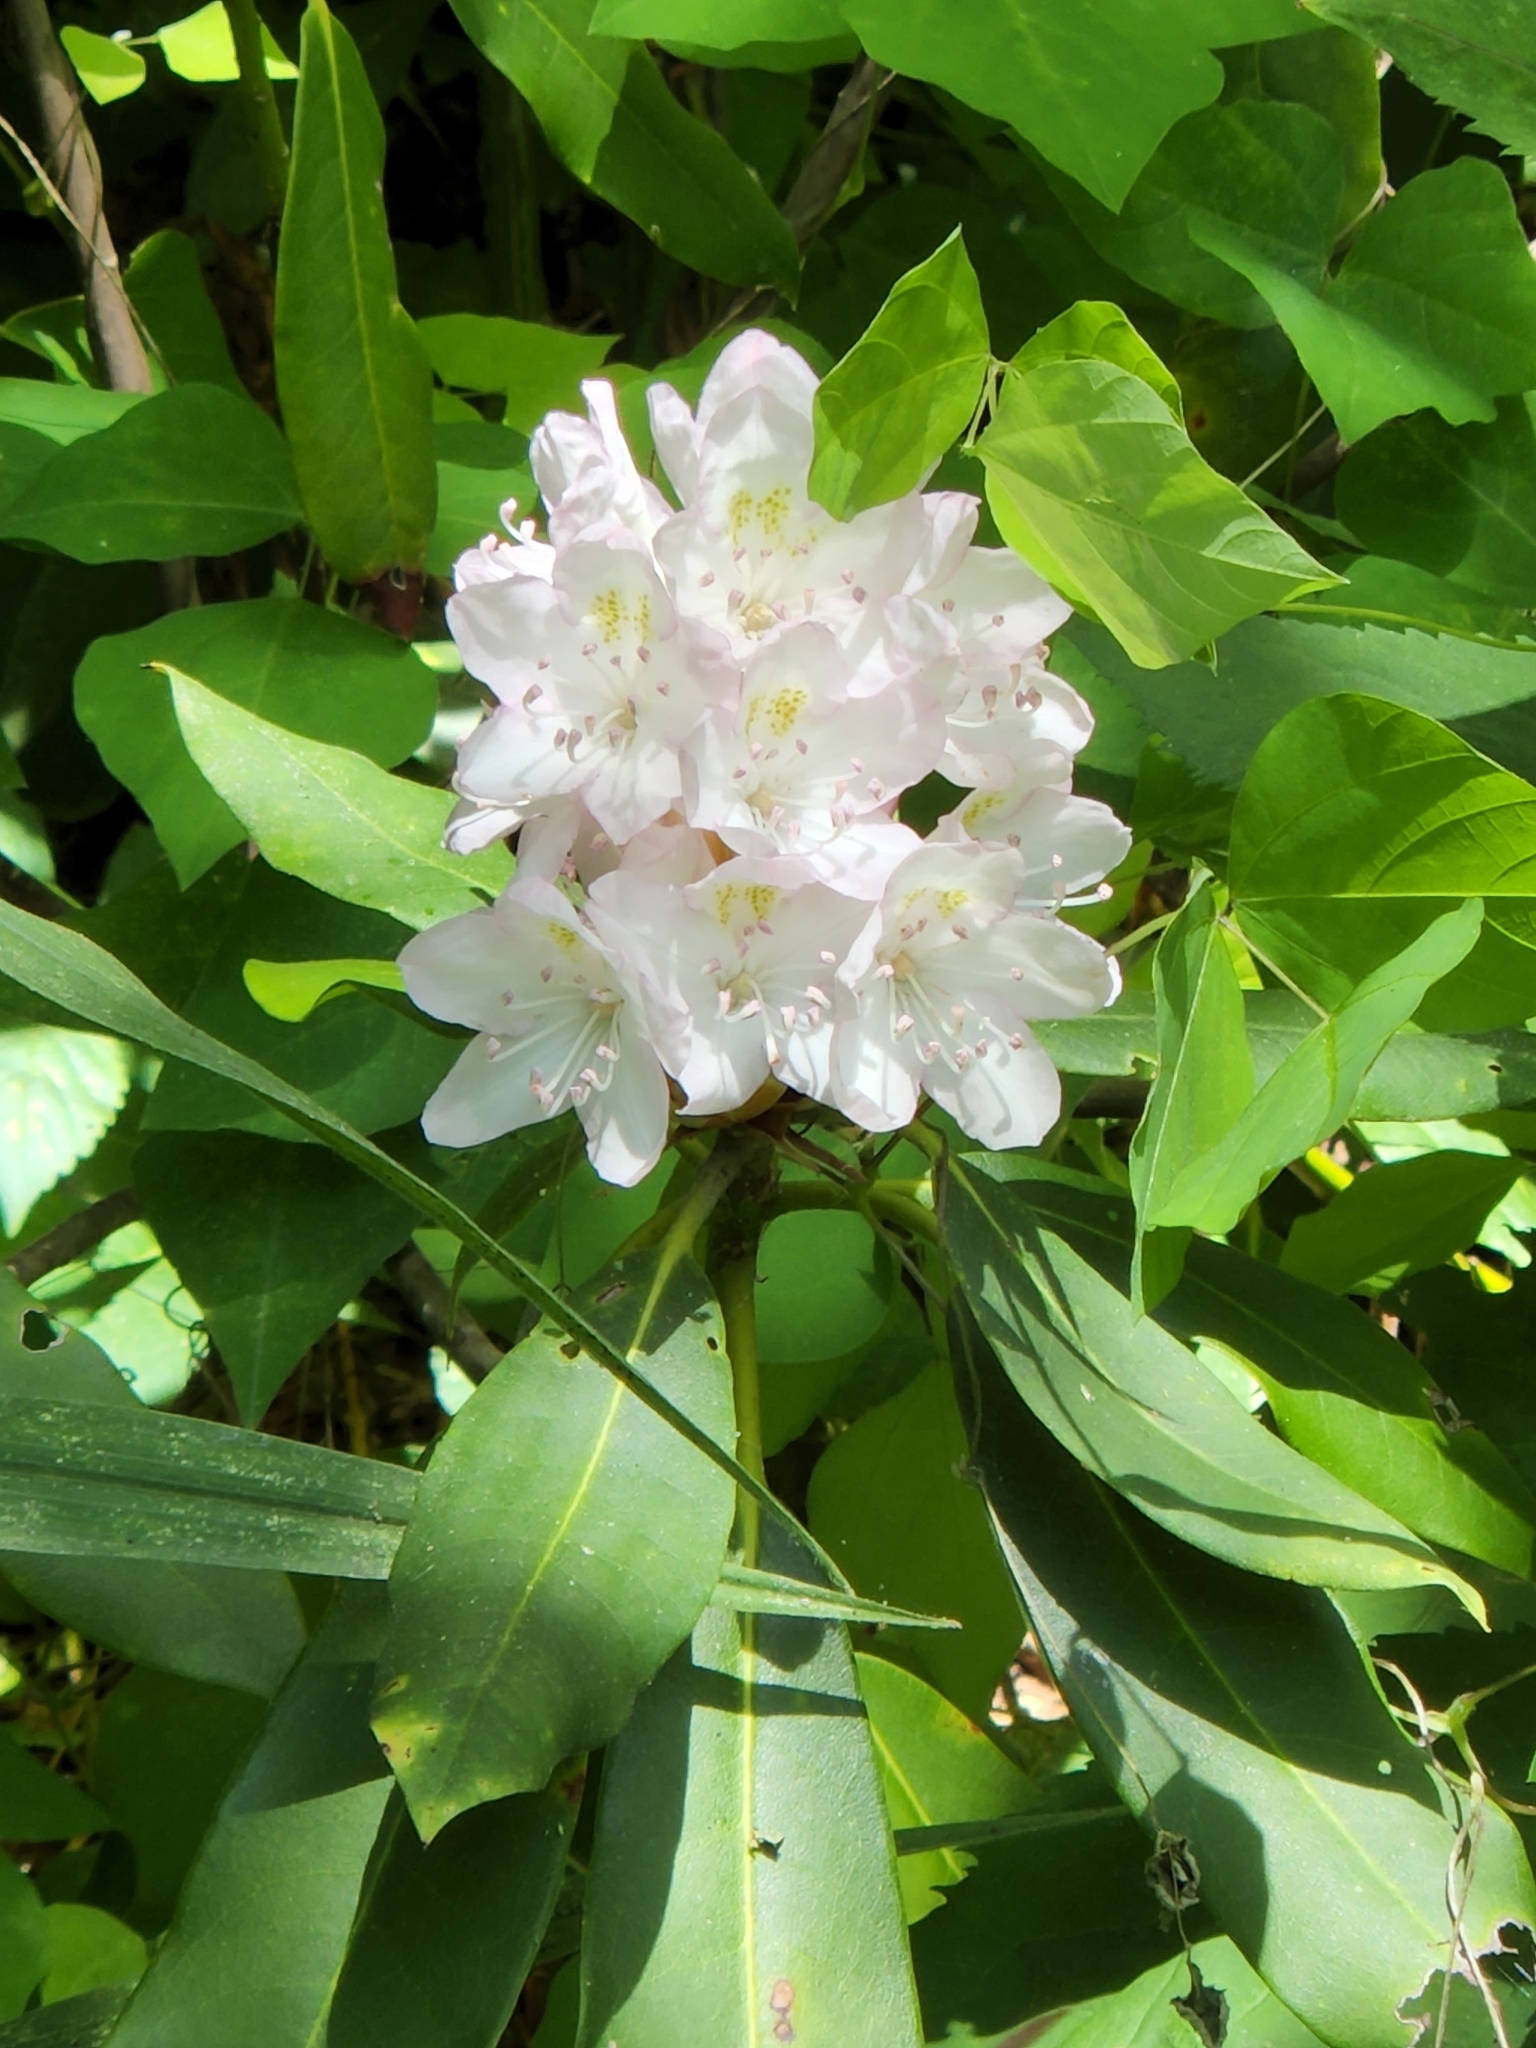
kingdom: Plantae
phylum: Tracheophyta
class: Magnoliopsida
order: Ericales
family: Ericaceae
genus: Rhododendron
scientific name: Rhododendron maximum
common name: Great rhododendron
